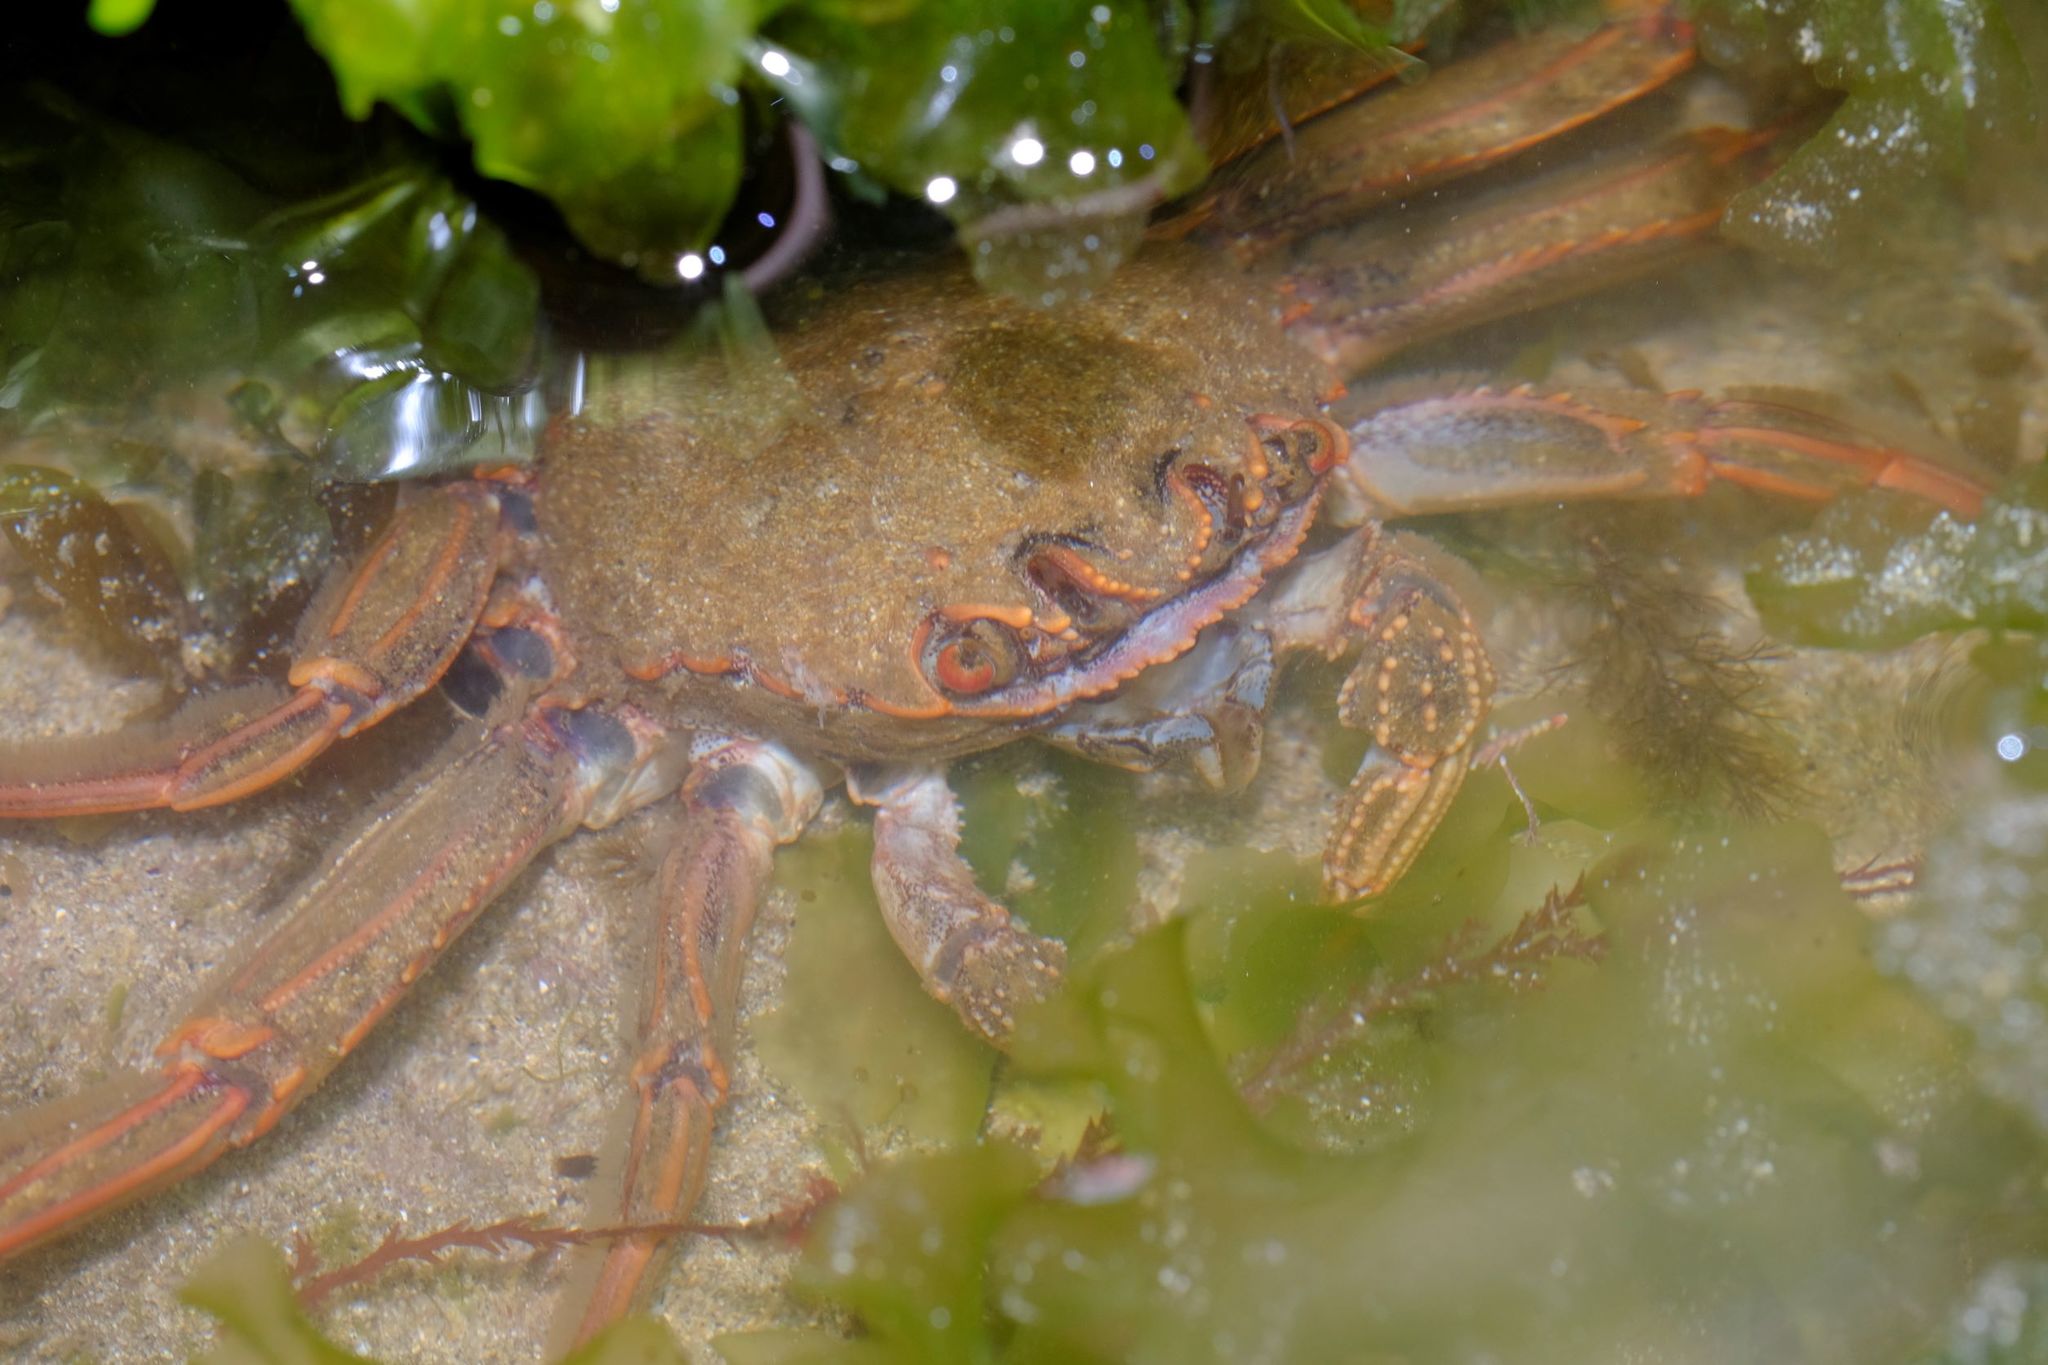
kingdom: Animalia
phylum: Arthropoda
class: Malacostraca
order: Decapoda
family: Plagusiidae
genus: Guinusia
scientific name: Guinusia chabrus
